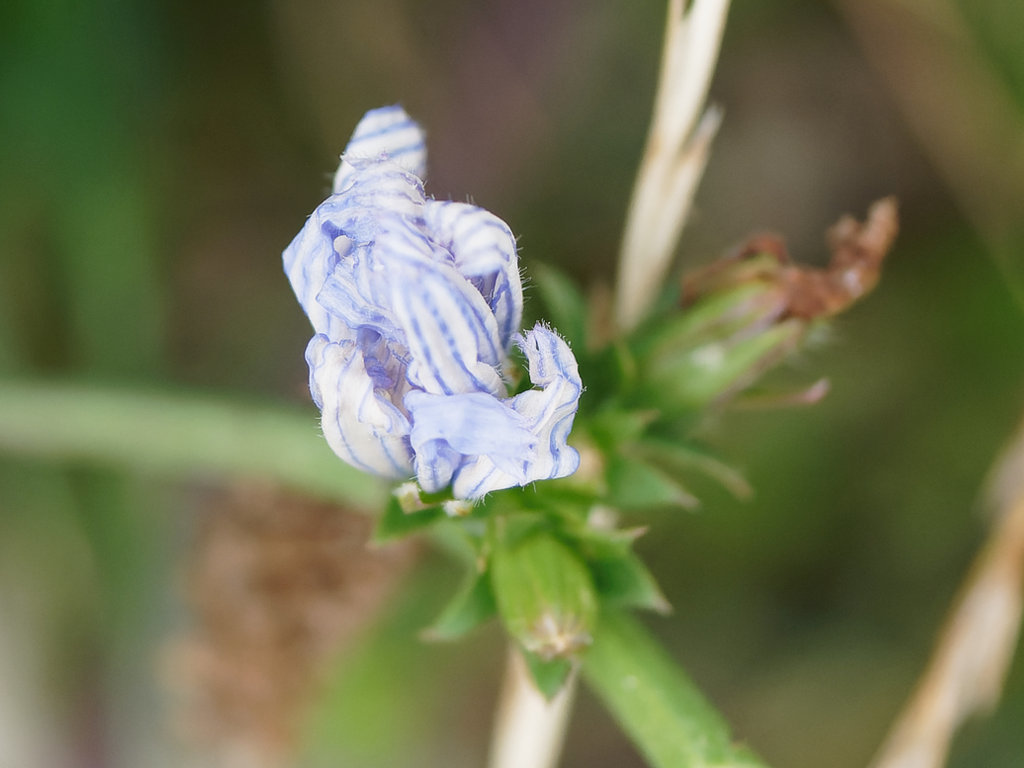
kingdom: Plantae
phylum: Tracheophyta
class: Magnoliopsida
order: Asterales
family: Asteraceae
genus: Cichorium
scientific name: Cichorium intybus
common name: Chicory
